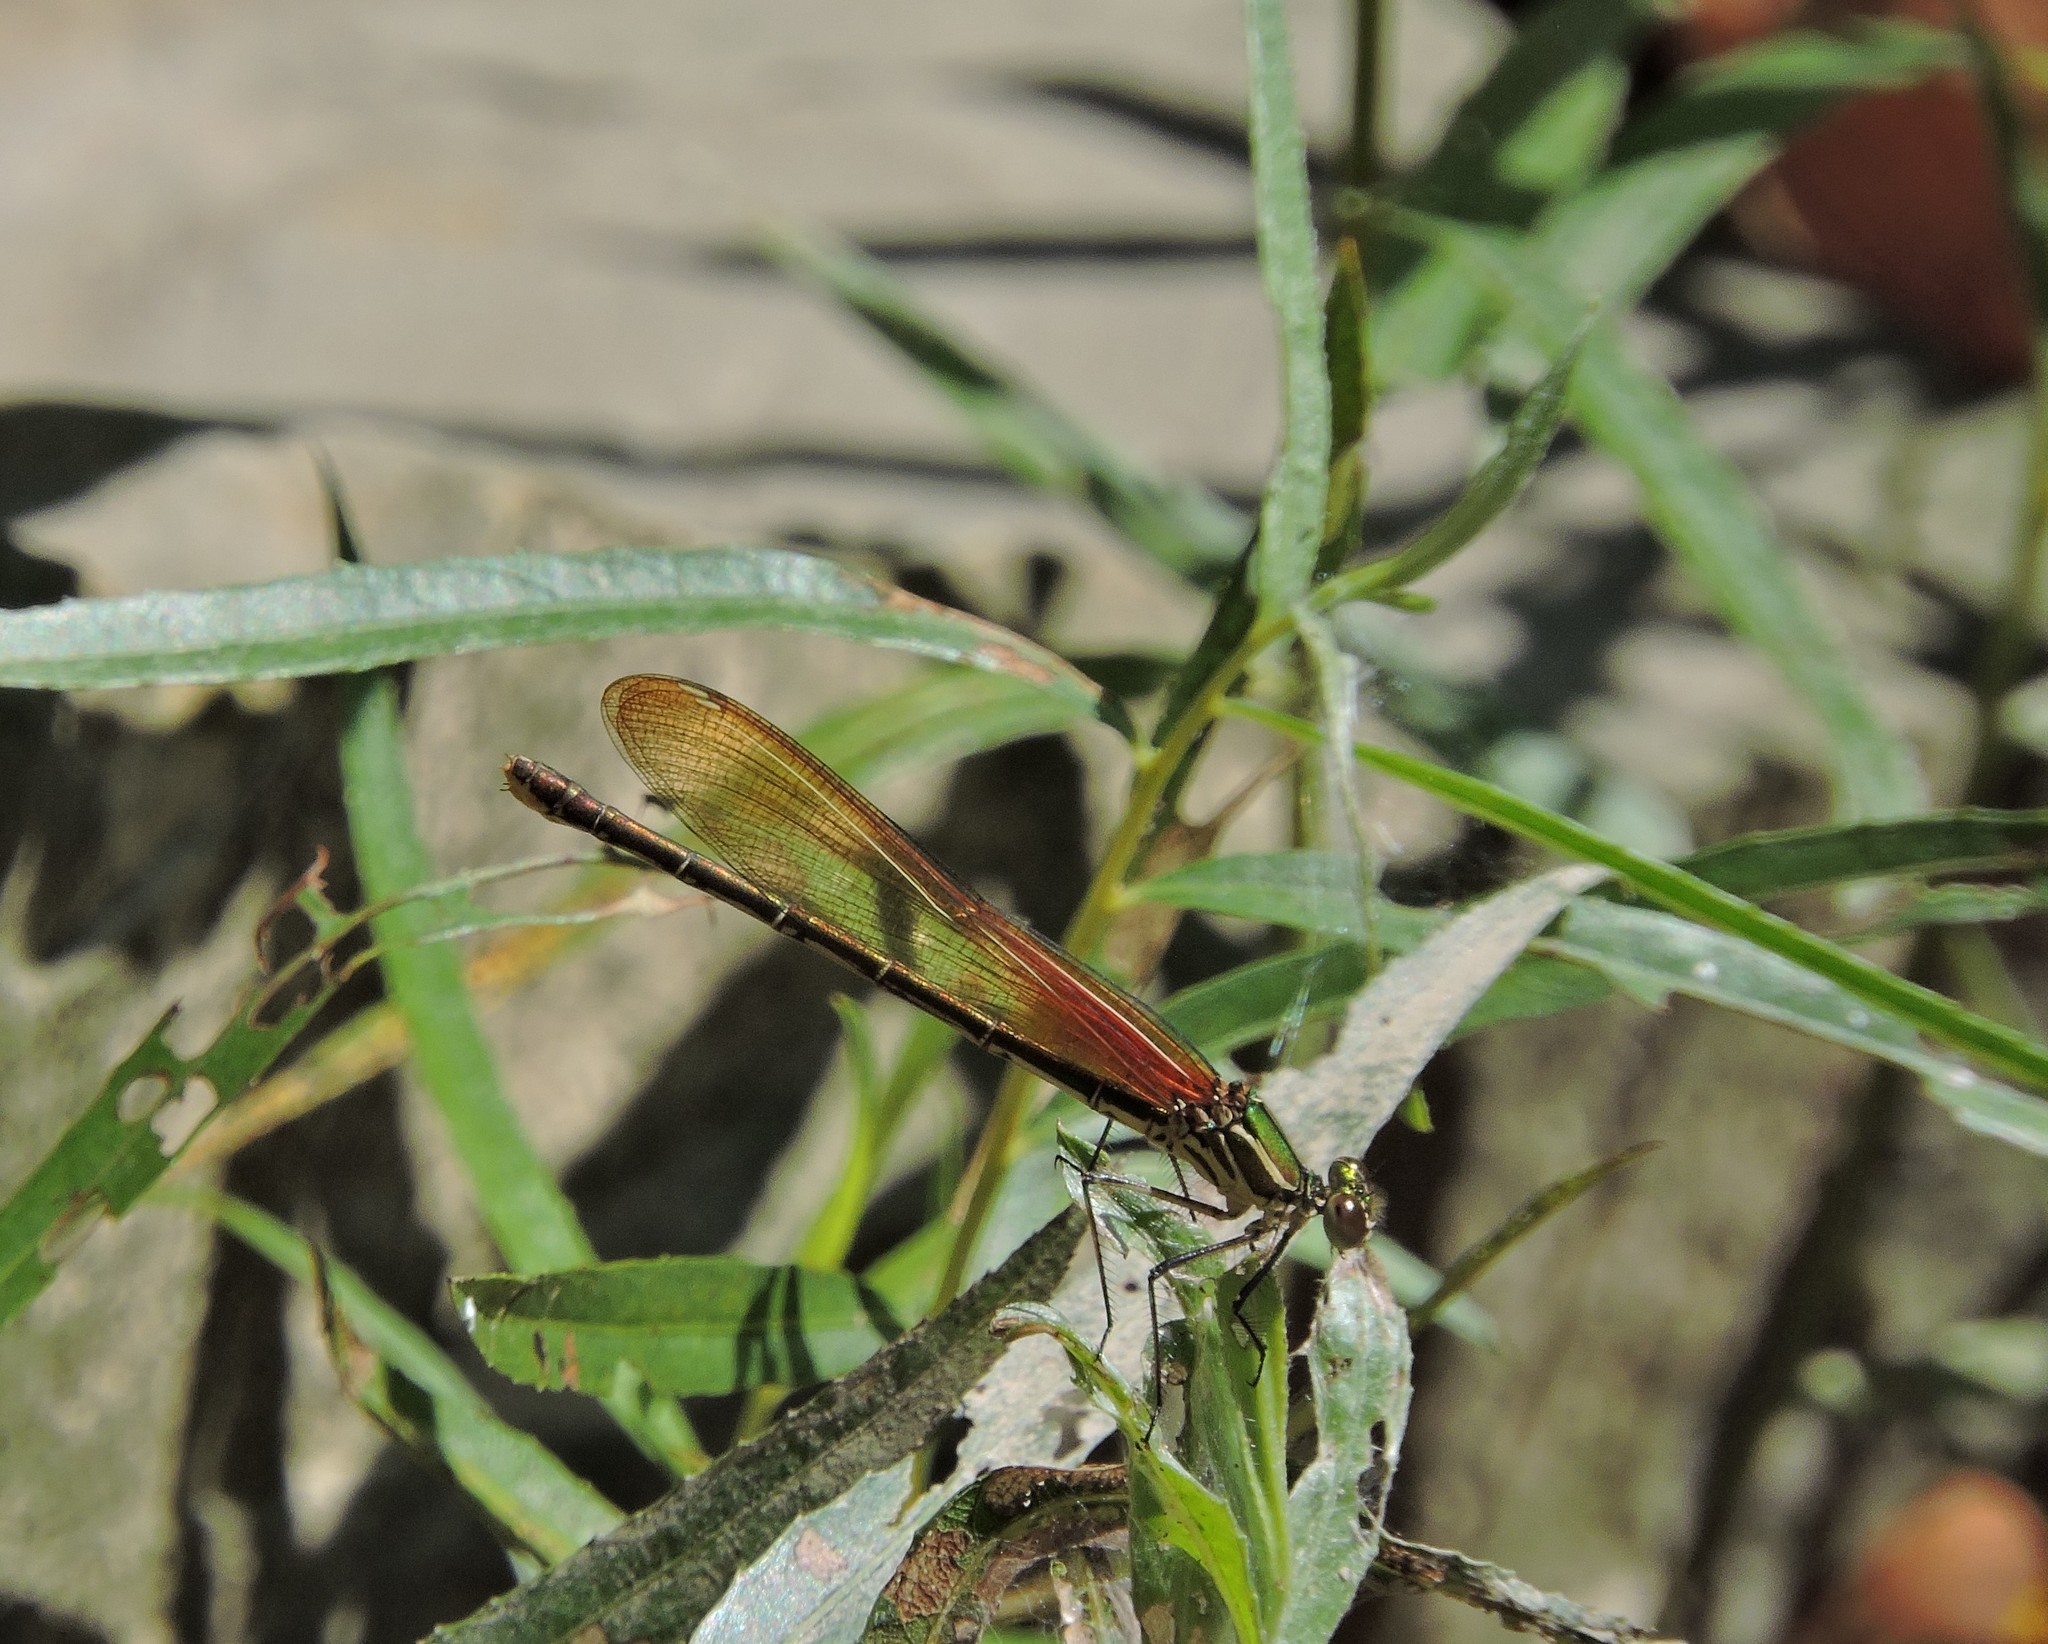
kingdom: Animalia
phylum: Arthropoda
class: Insecta
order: Odonata
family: Calopterygidae
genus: Hetaerina
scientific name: Hetaerina americana
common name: American rubyspot
